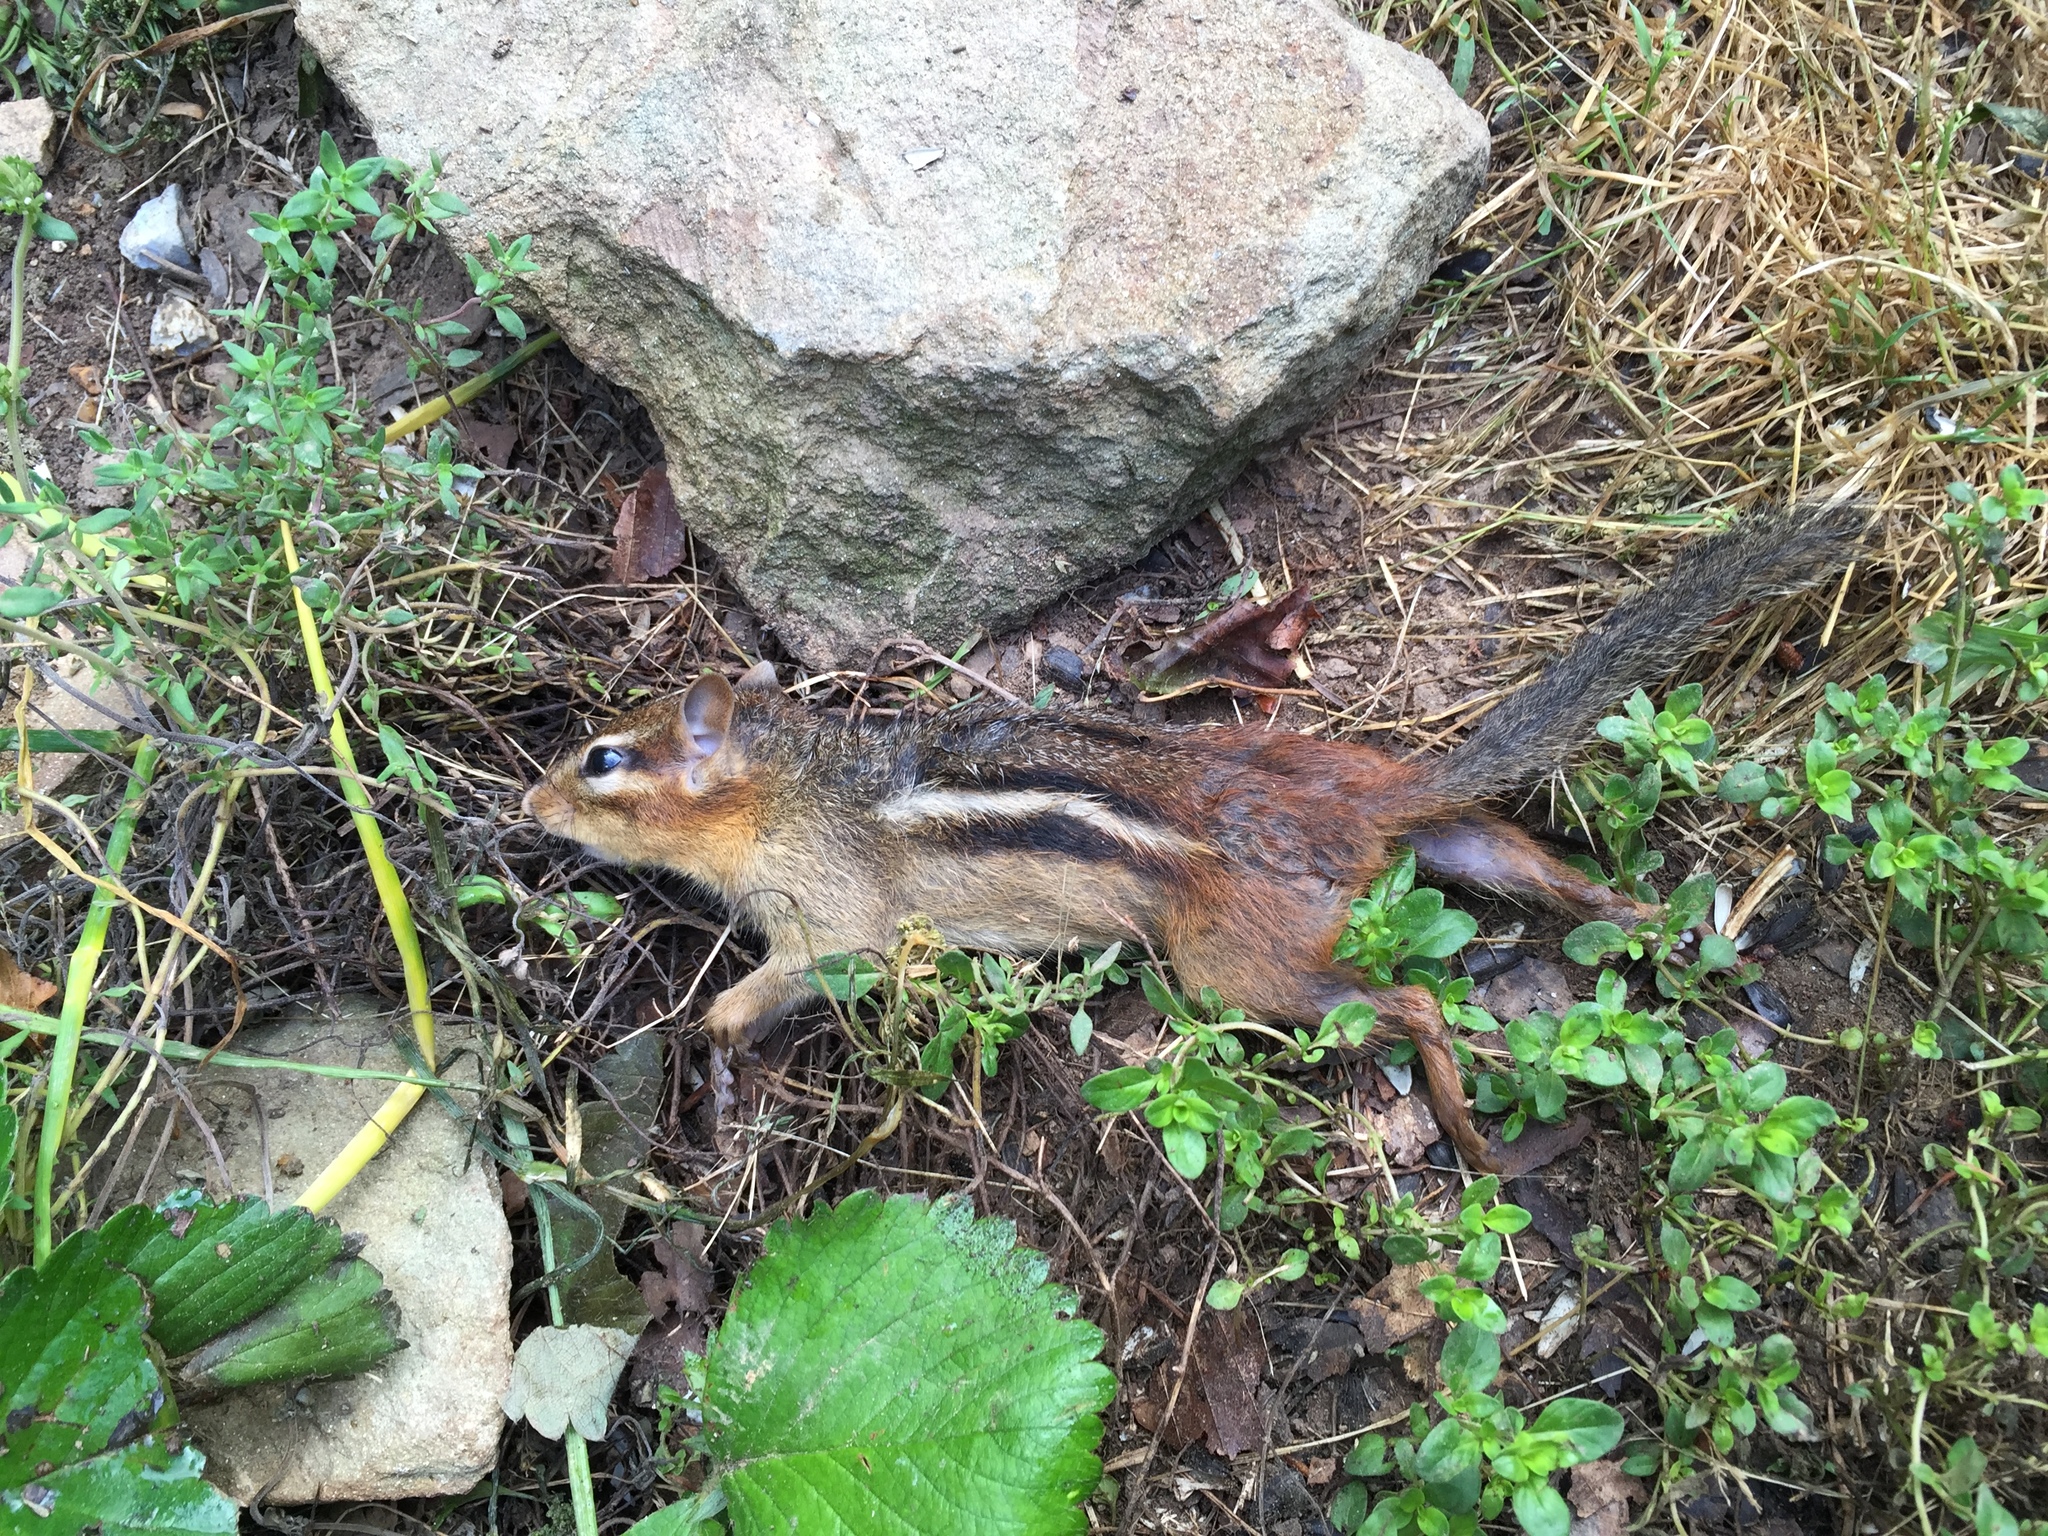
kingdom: Animalia
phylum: Chordata
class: Mammalia
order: Rodentia
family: Sciuridae
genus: Tamias
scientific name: Tamias striatus
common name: Eastern chipmunk
